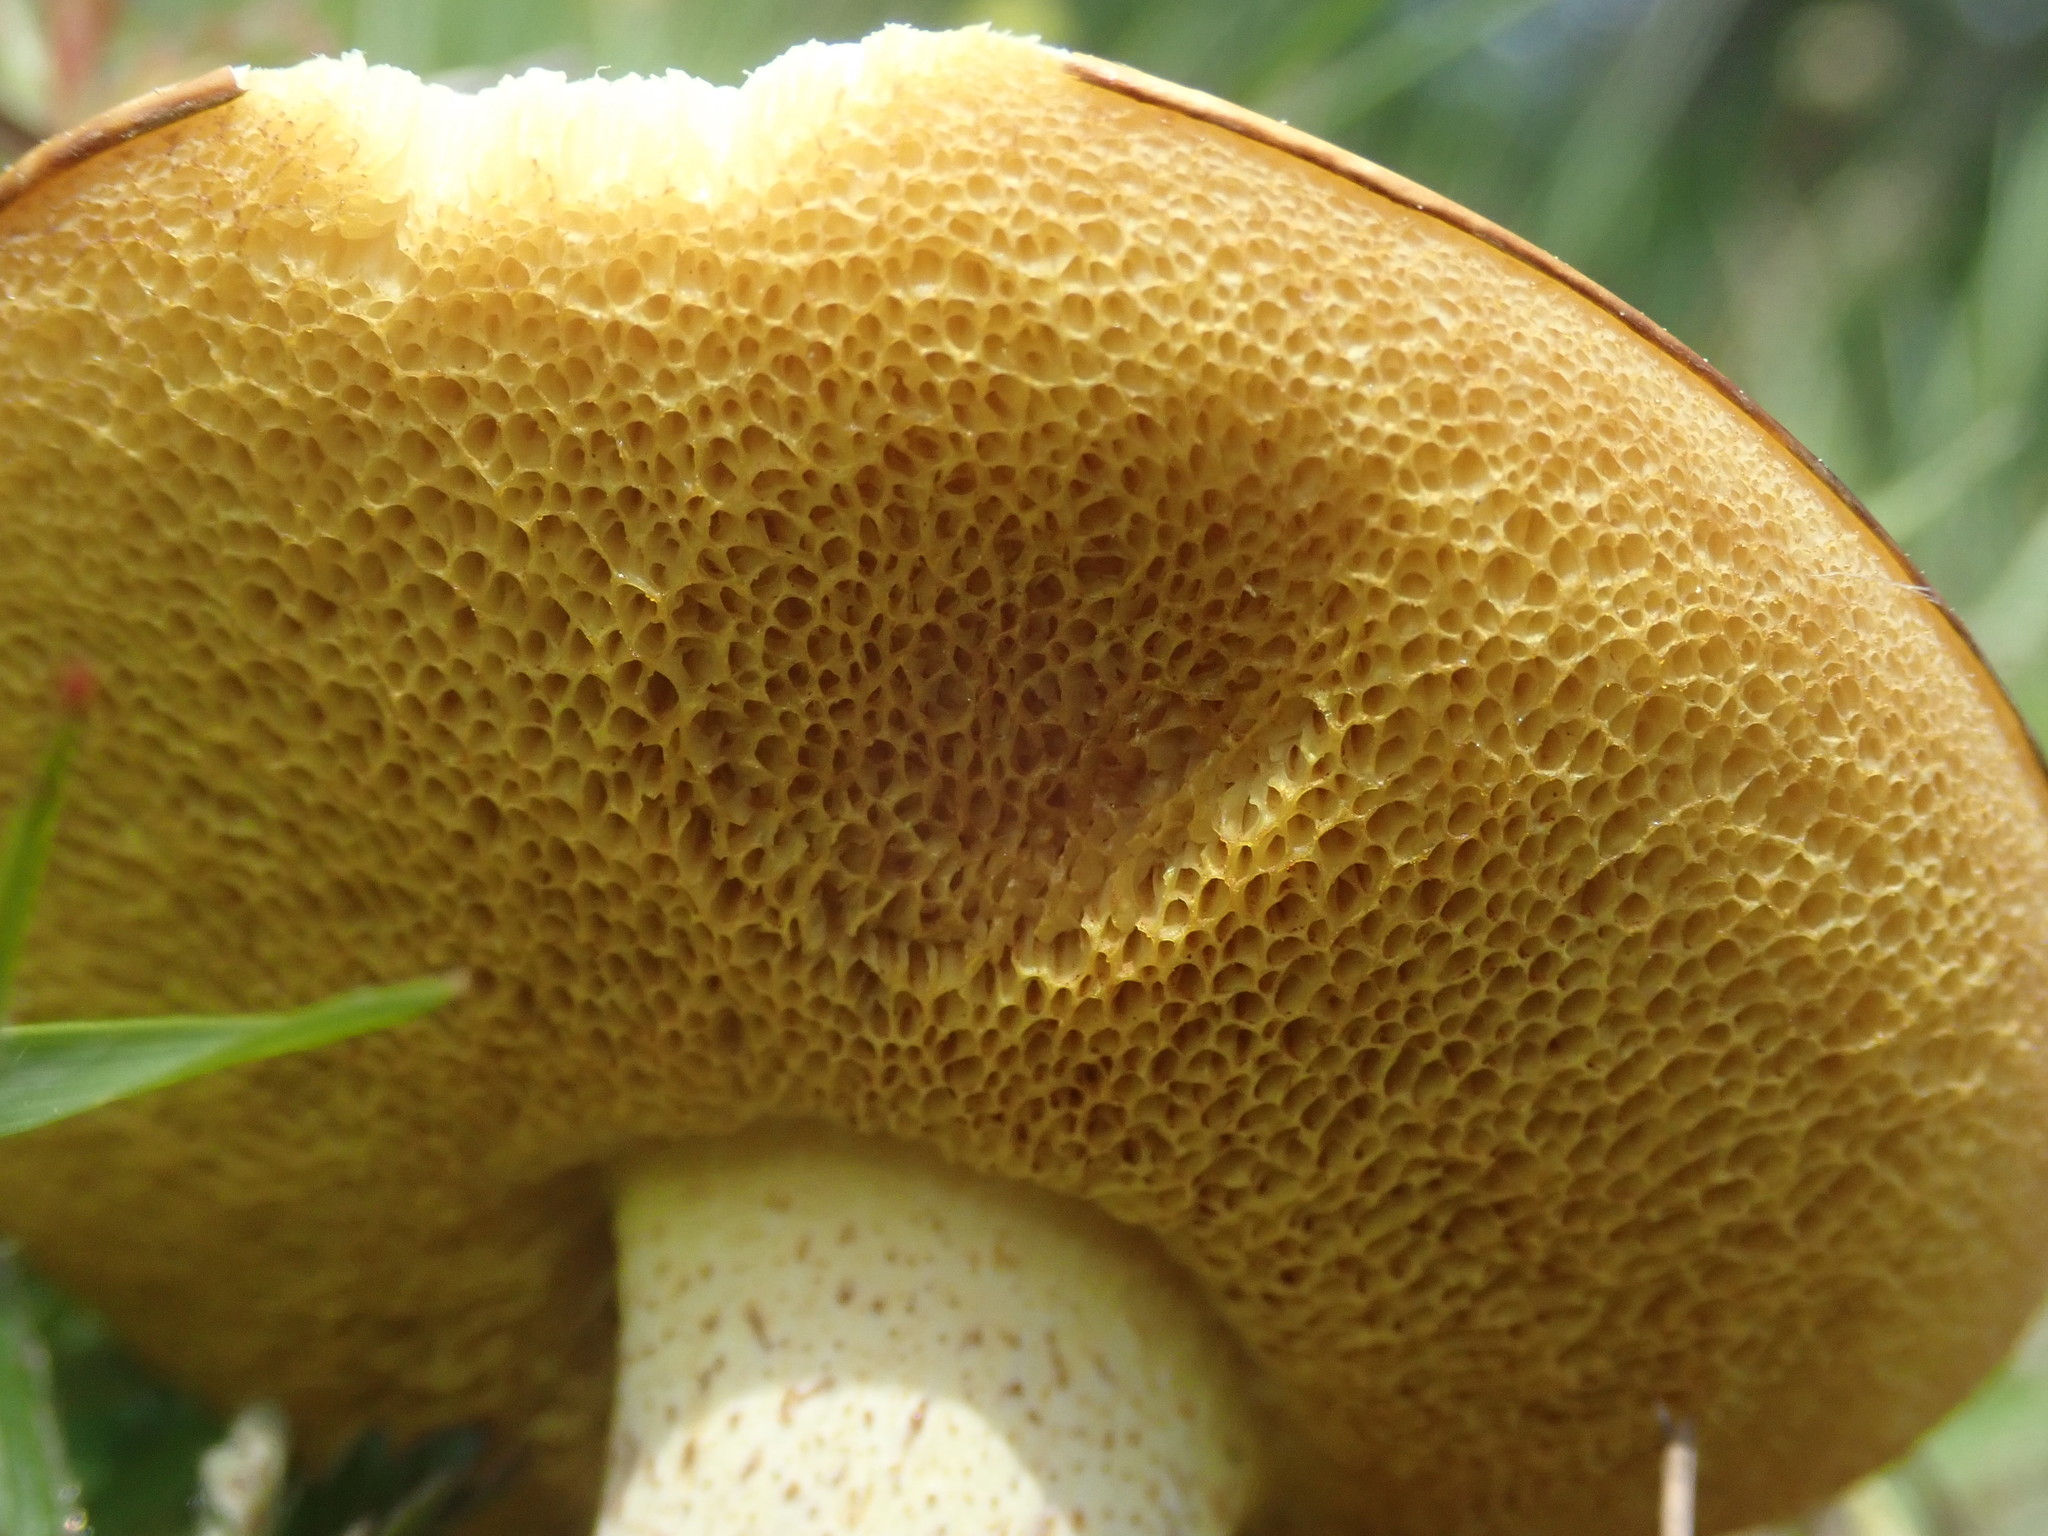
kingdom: Fungi
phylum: Basidiomycota
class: Agaricomycetes
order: Boletales
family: Suillaceae
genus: Suillus
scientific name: Suillus granulatus
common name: Weeping bolete
